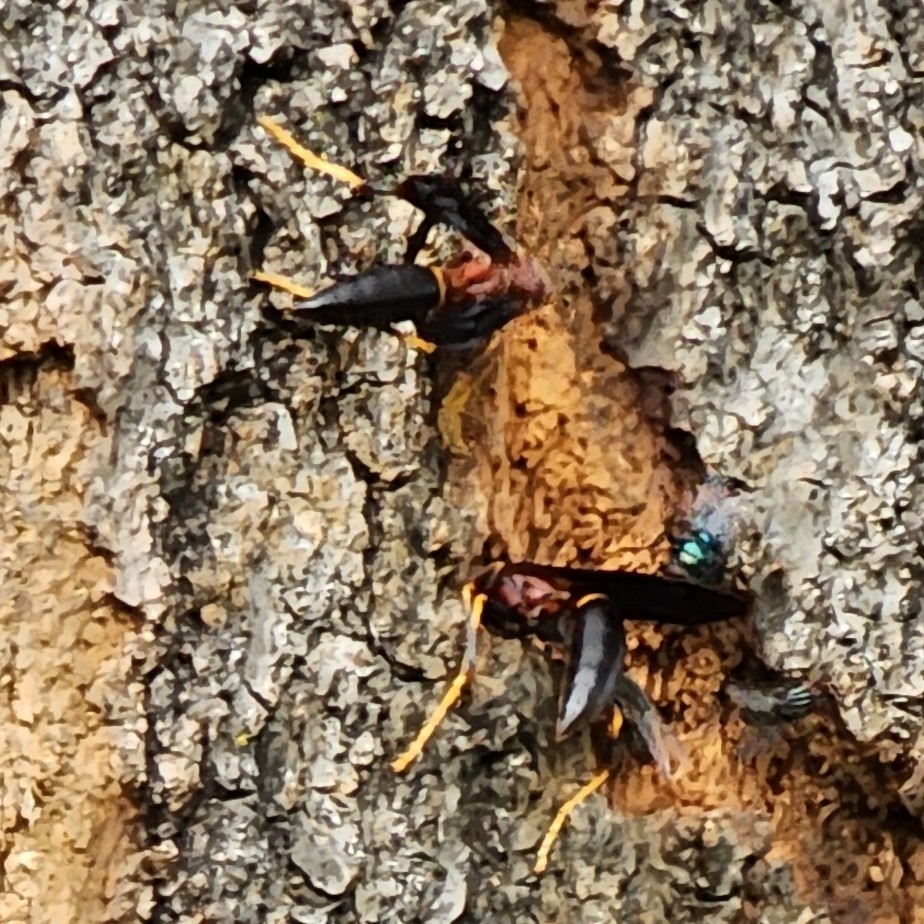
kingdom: Animalia
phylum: Arthropoda
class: Insecta
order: Hymenoptera
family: Eumenidae
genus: Polistes
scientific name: Polistes annularis
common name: Ringed paper wasp
